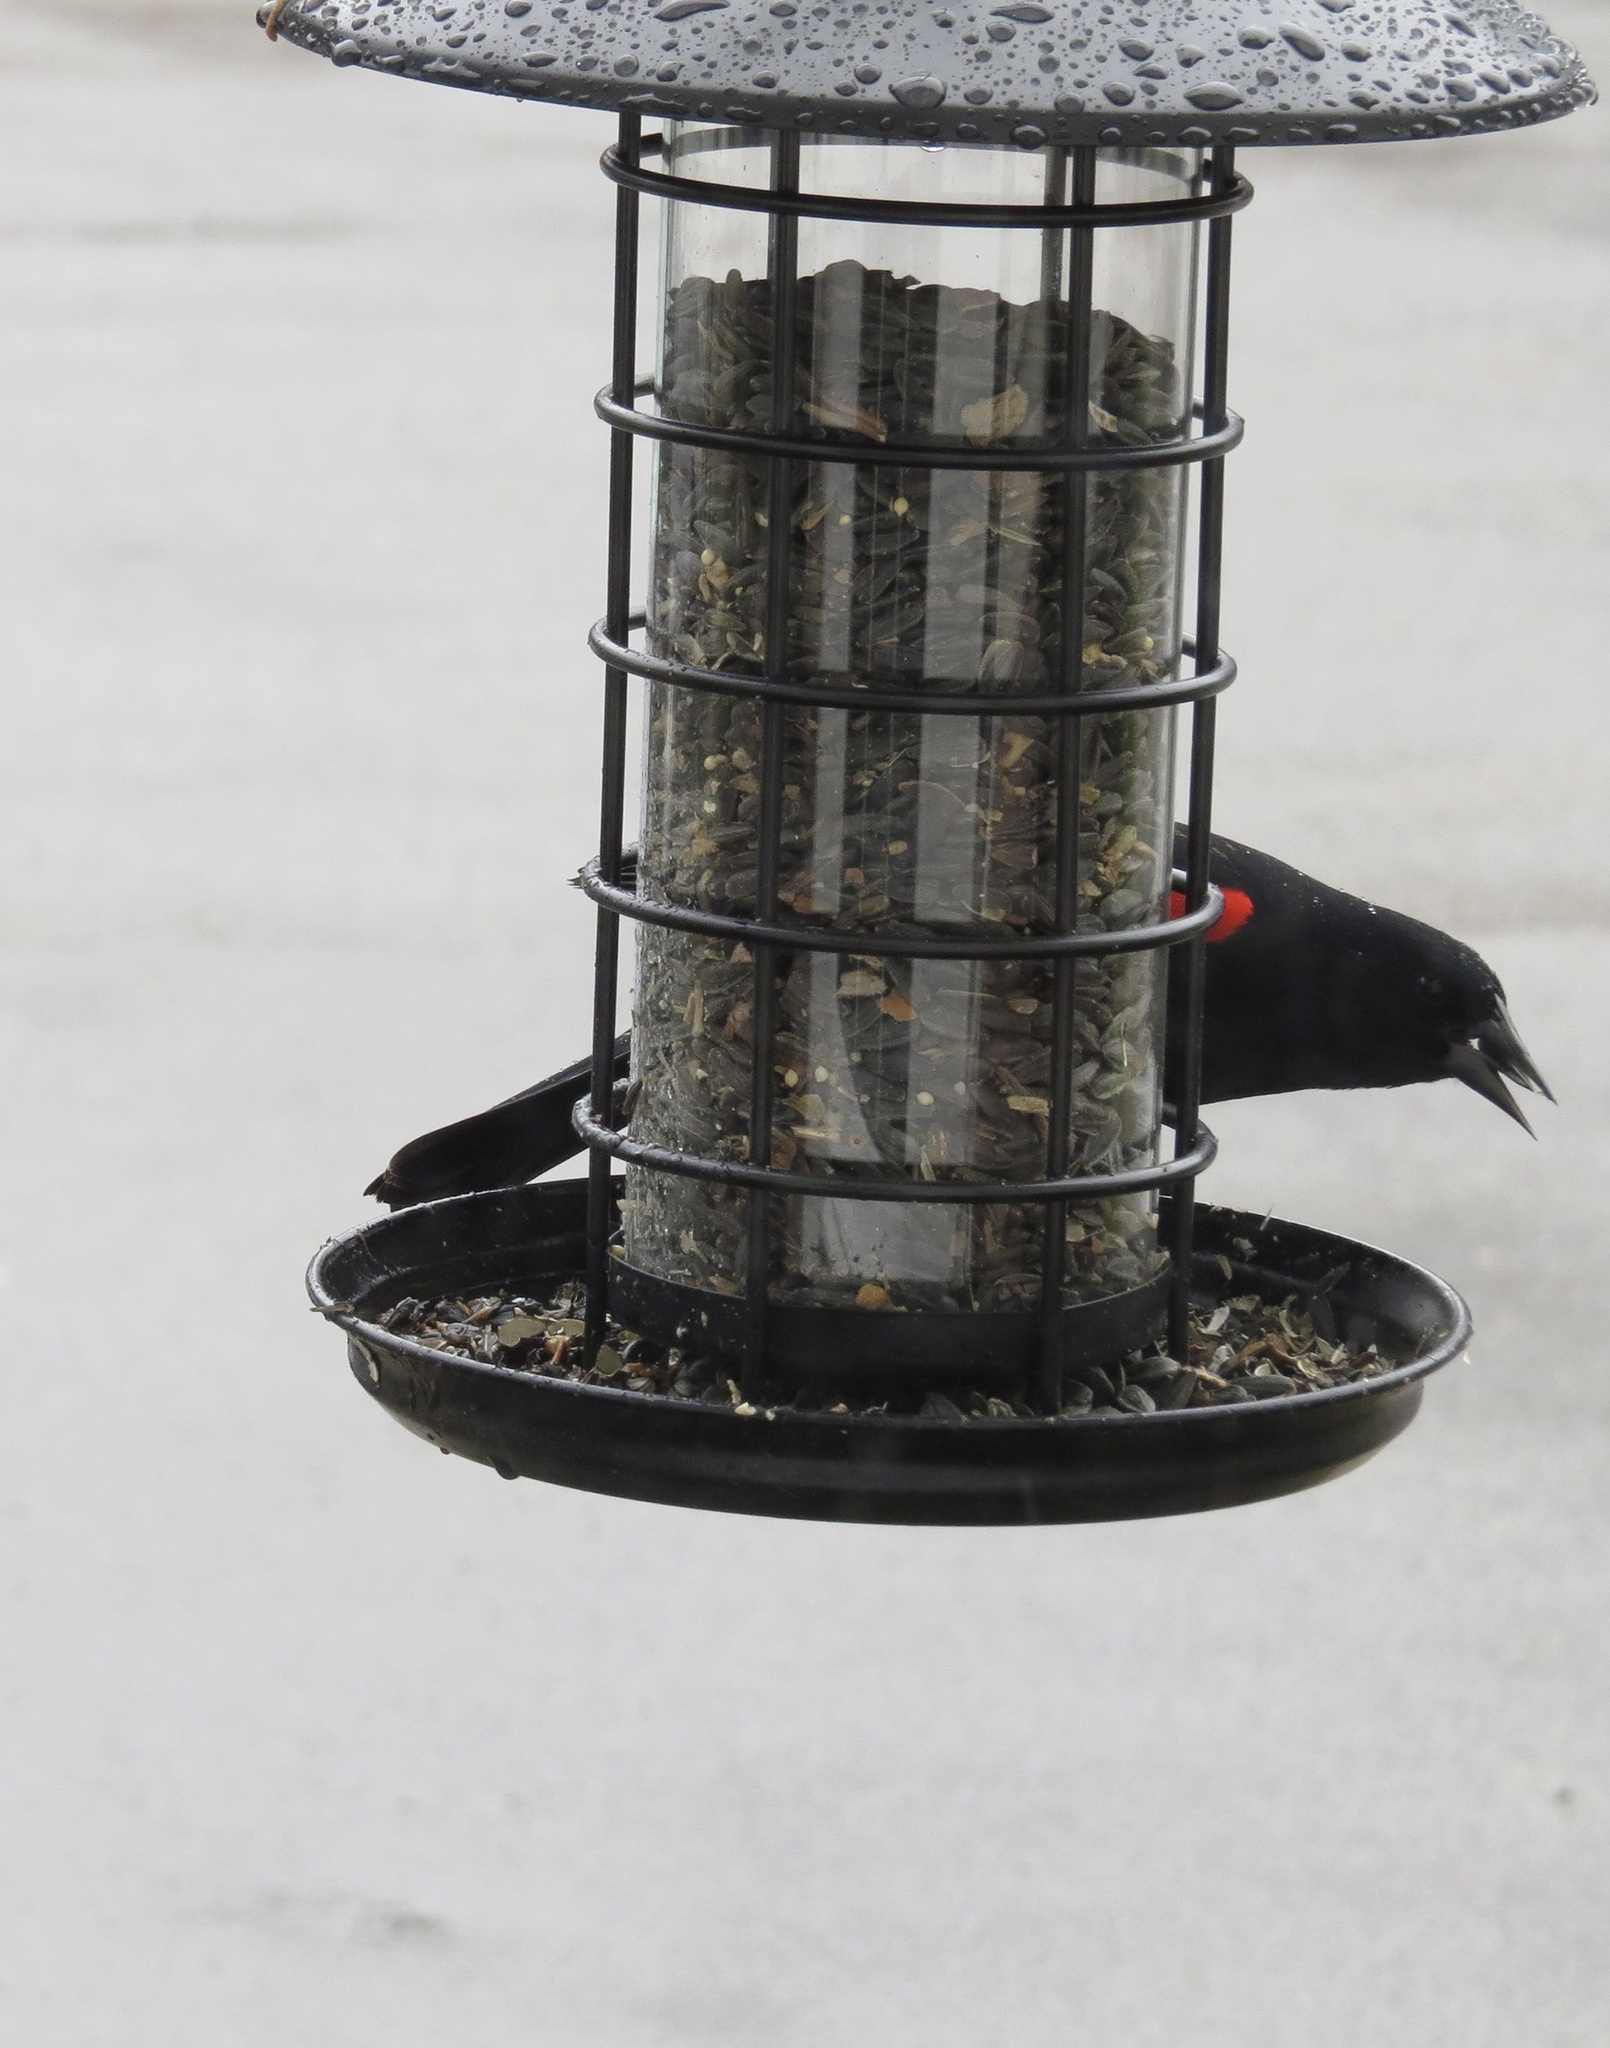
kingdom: Animalia
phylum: Chordata
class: Aves
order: Passeriformes
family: Icteridae
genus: Agelaius
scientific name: Agelaius phoeniceus
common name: Red-winged blackbird
